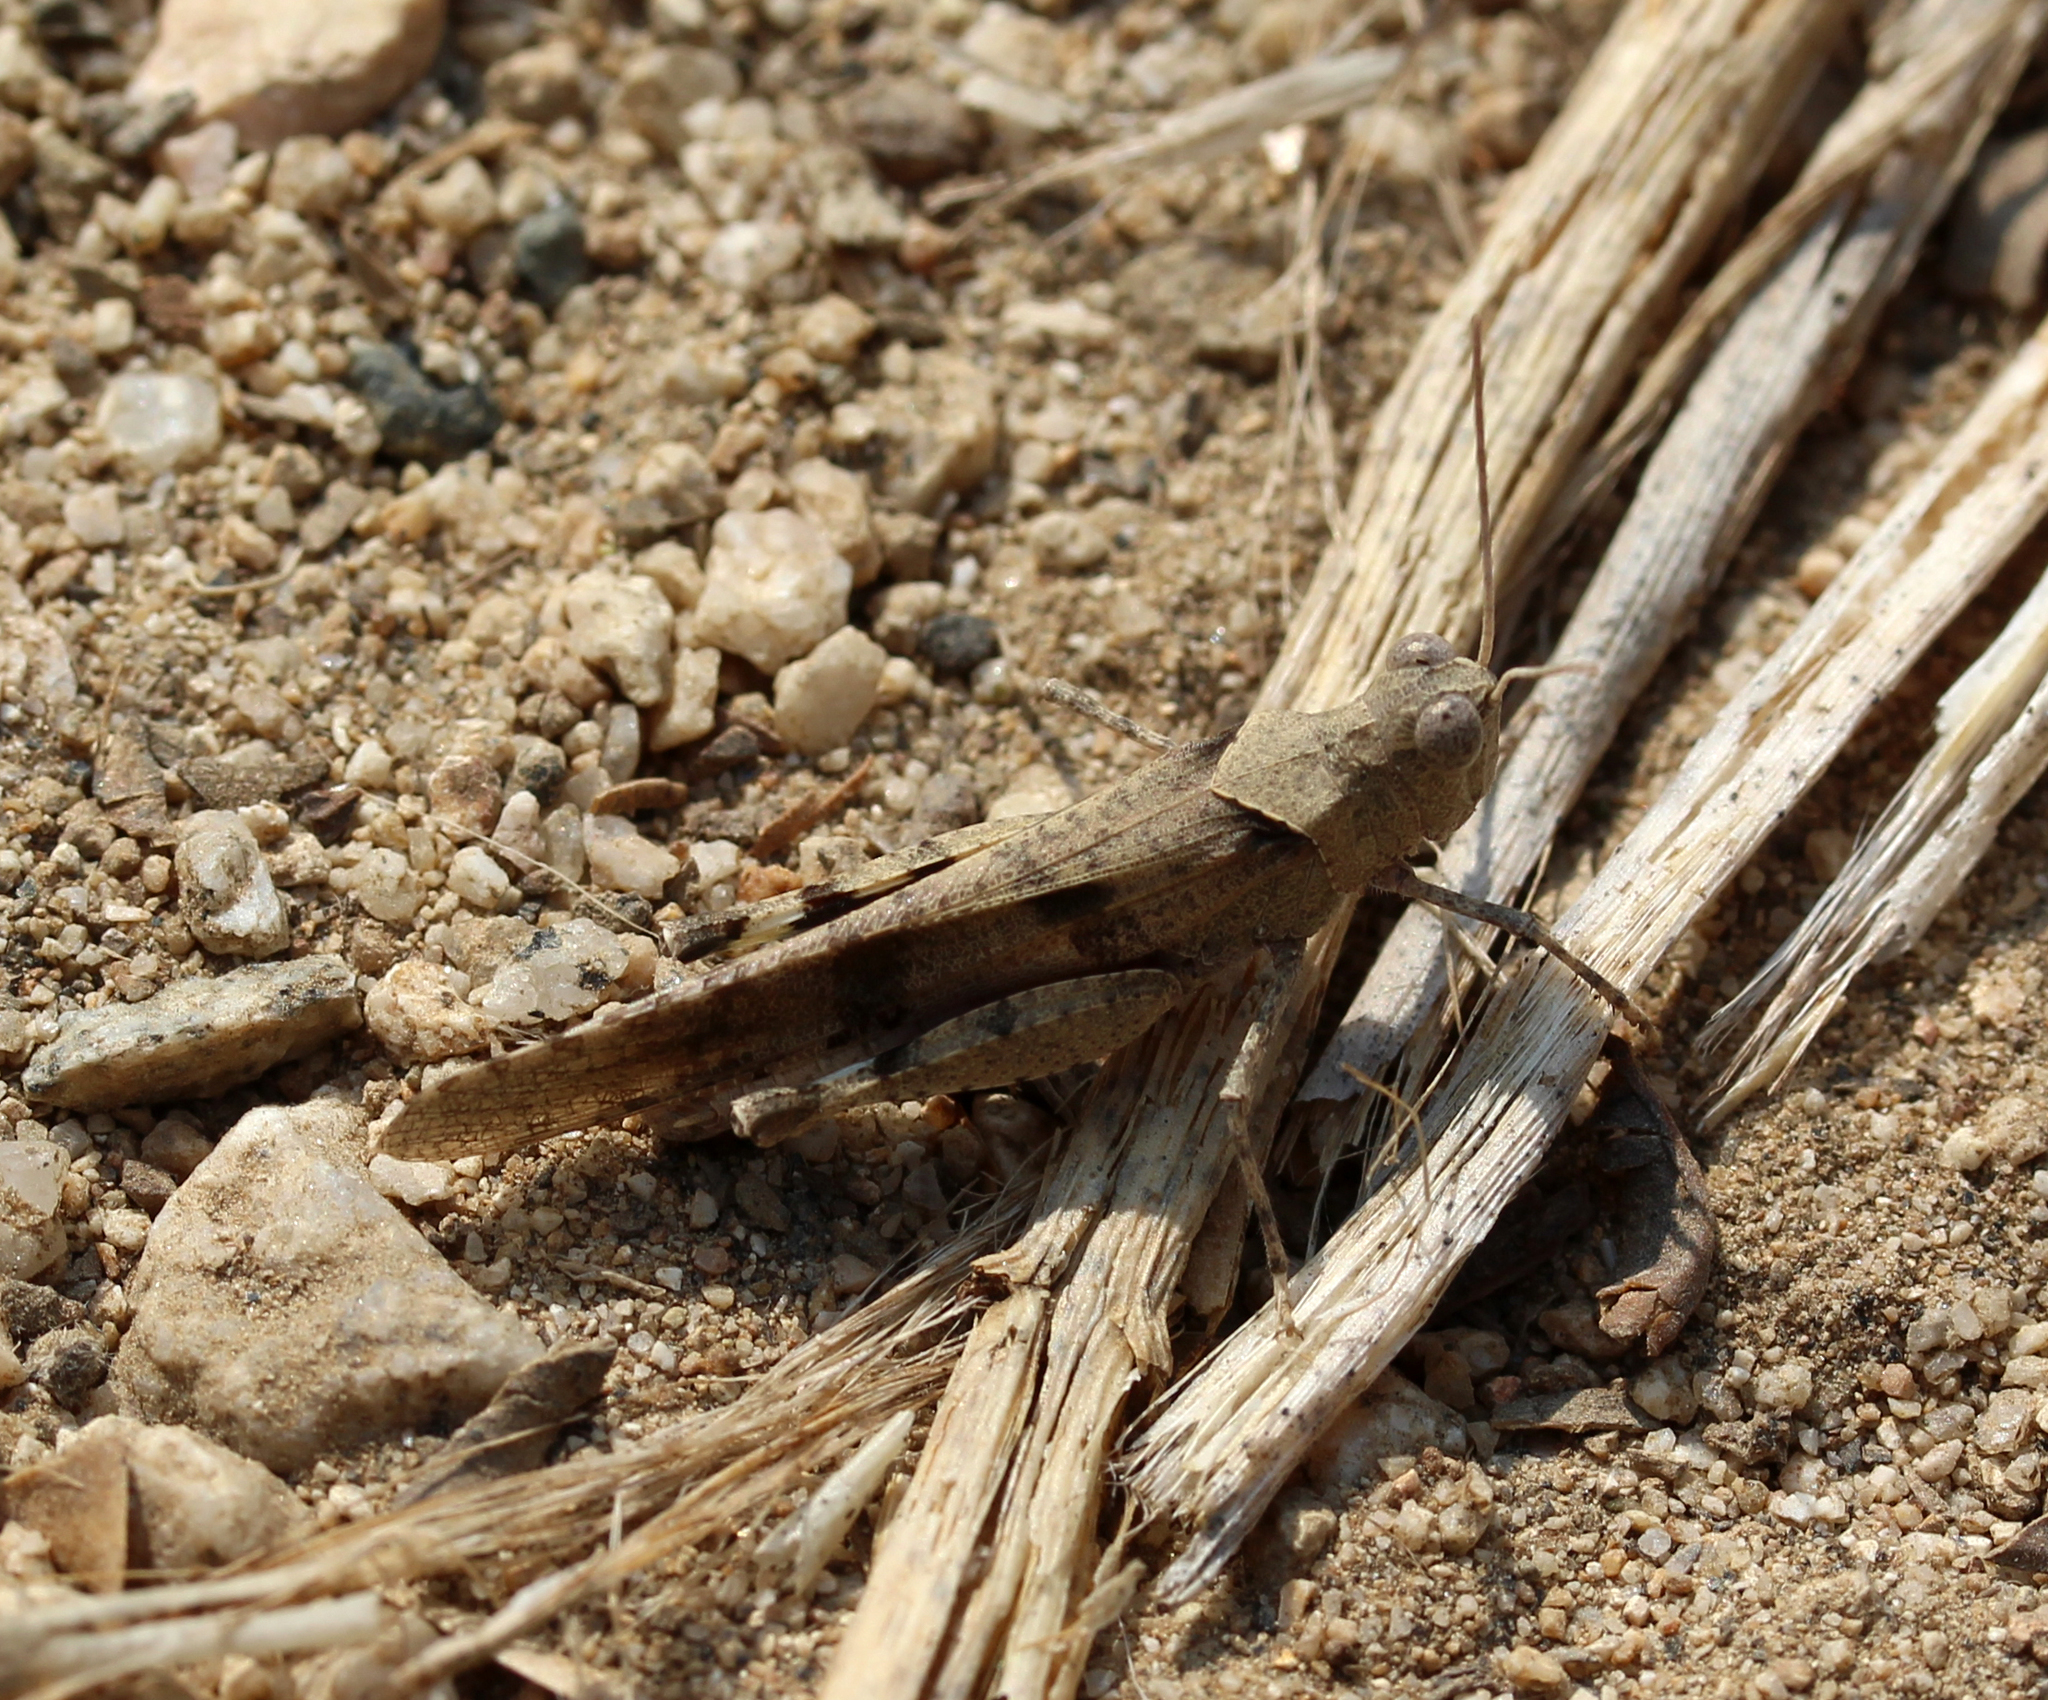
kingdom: Animalia
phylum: Arthropoda
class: Insecta
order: Orthoptera
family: Acrididae
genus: Trimerotropis
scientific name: Trimerotropis thalassica
